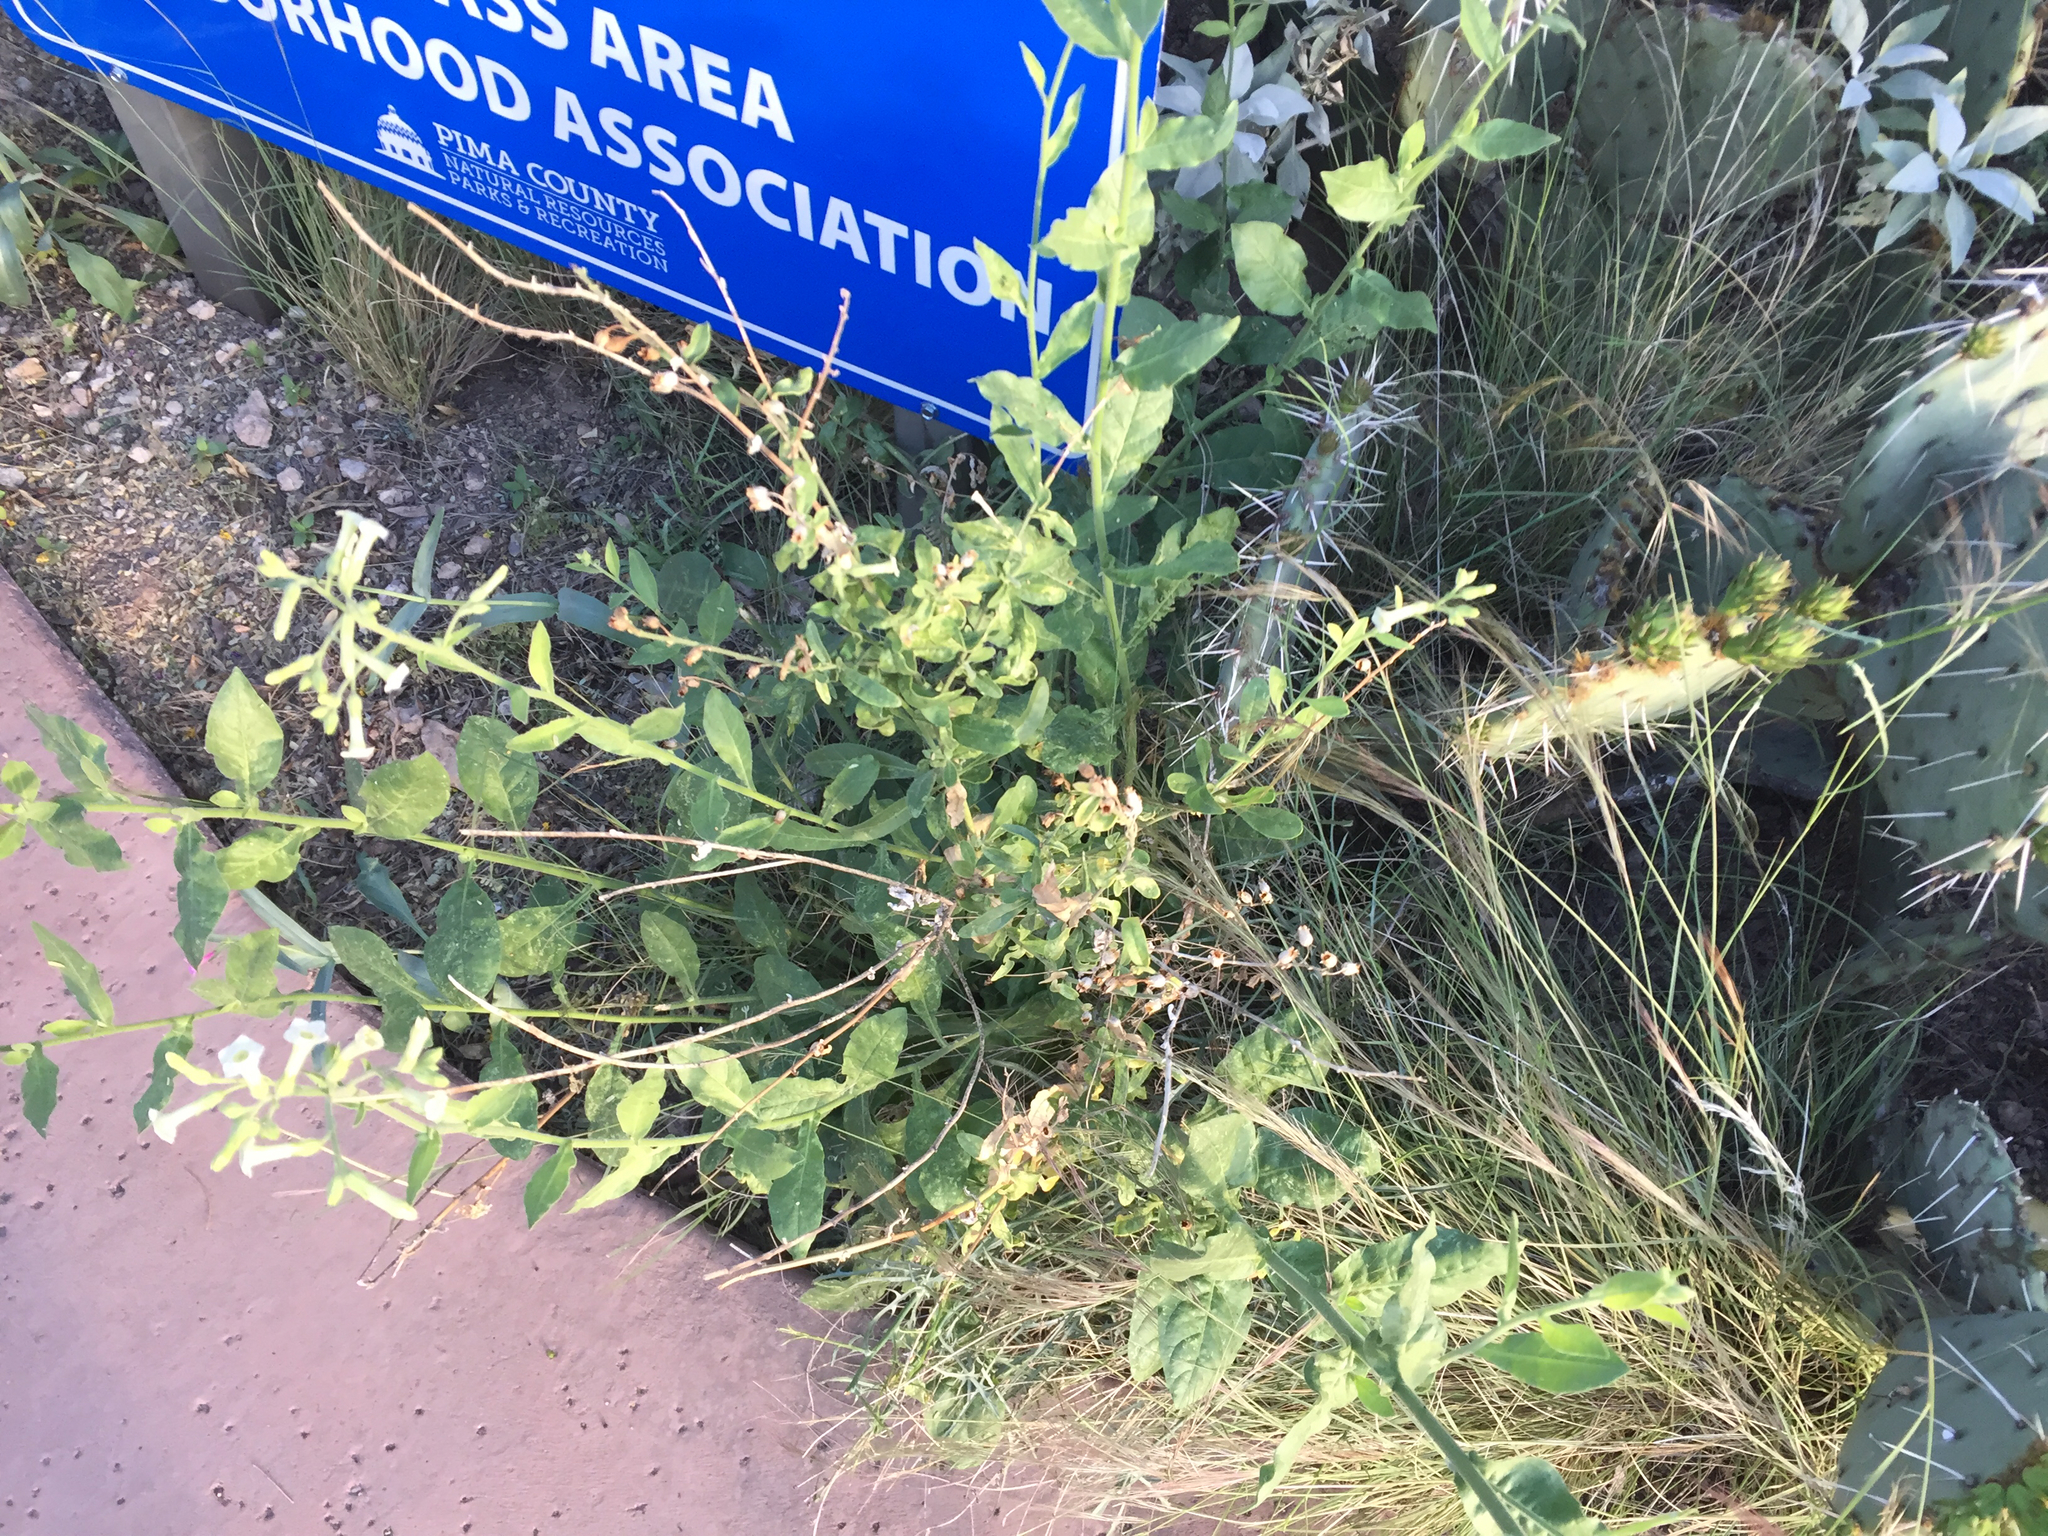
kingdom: Plantae
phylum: Tracheophyta
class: Magnoliopsida
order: Solanales
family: Solanaceae
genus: Nicotiana
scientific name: Nicotiana obtusifolia
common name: Desert tobacco
